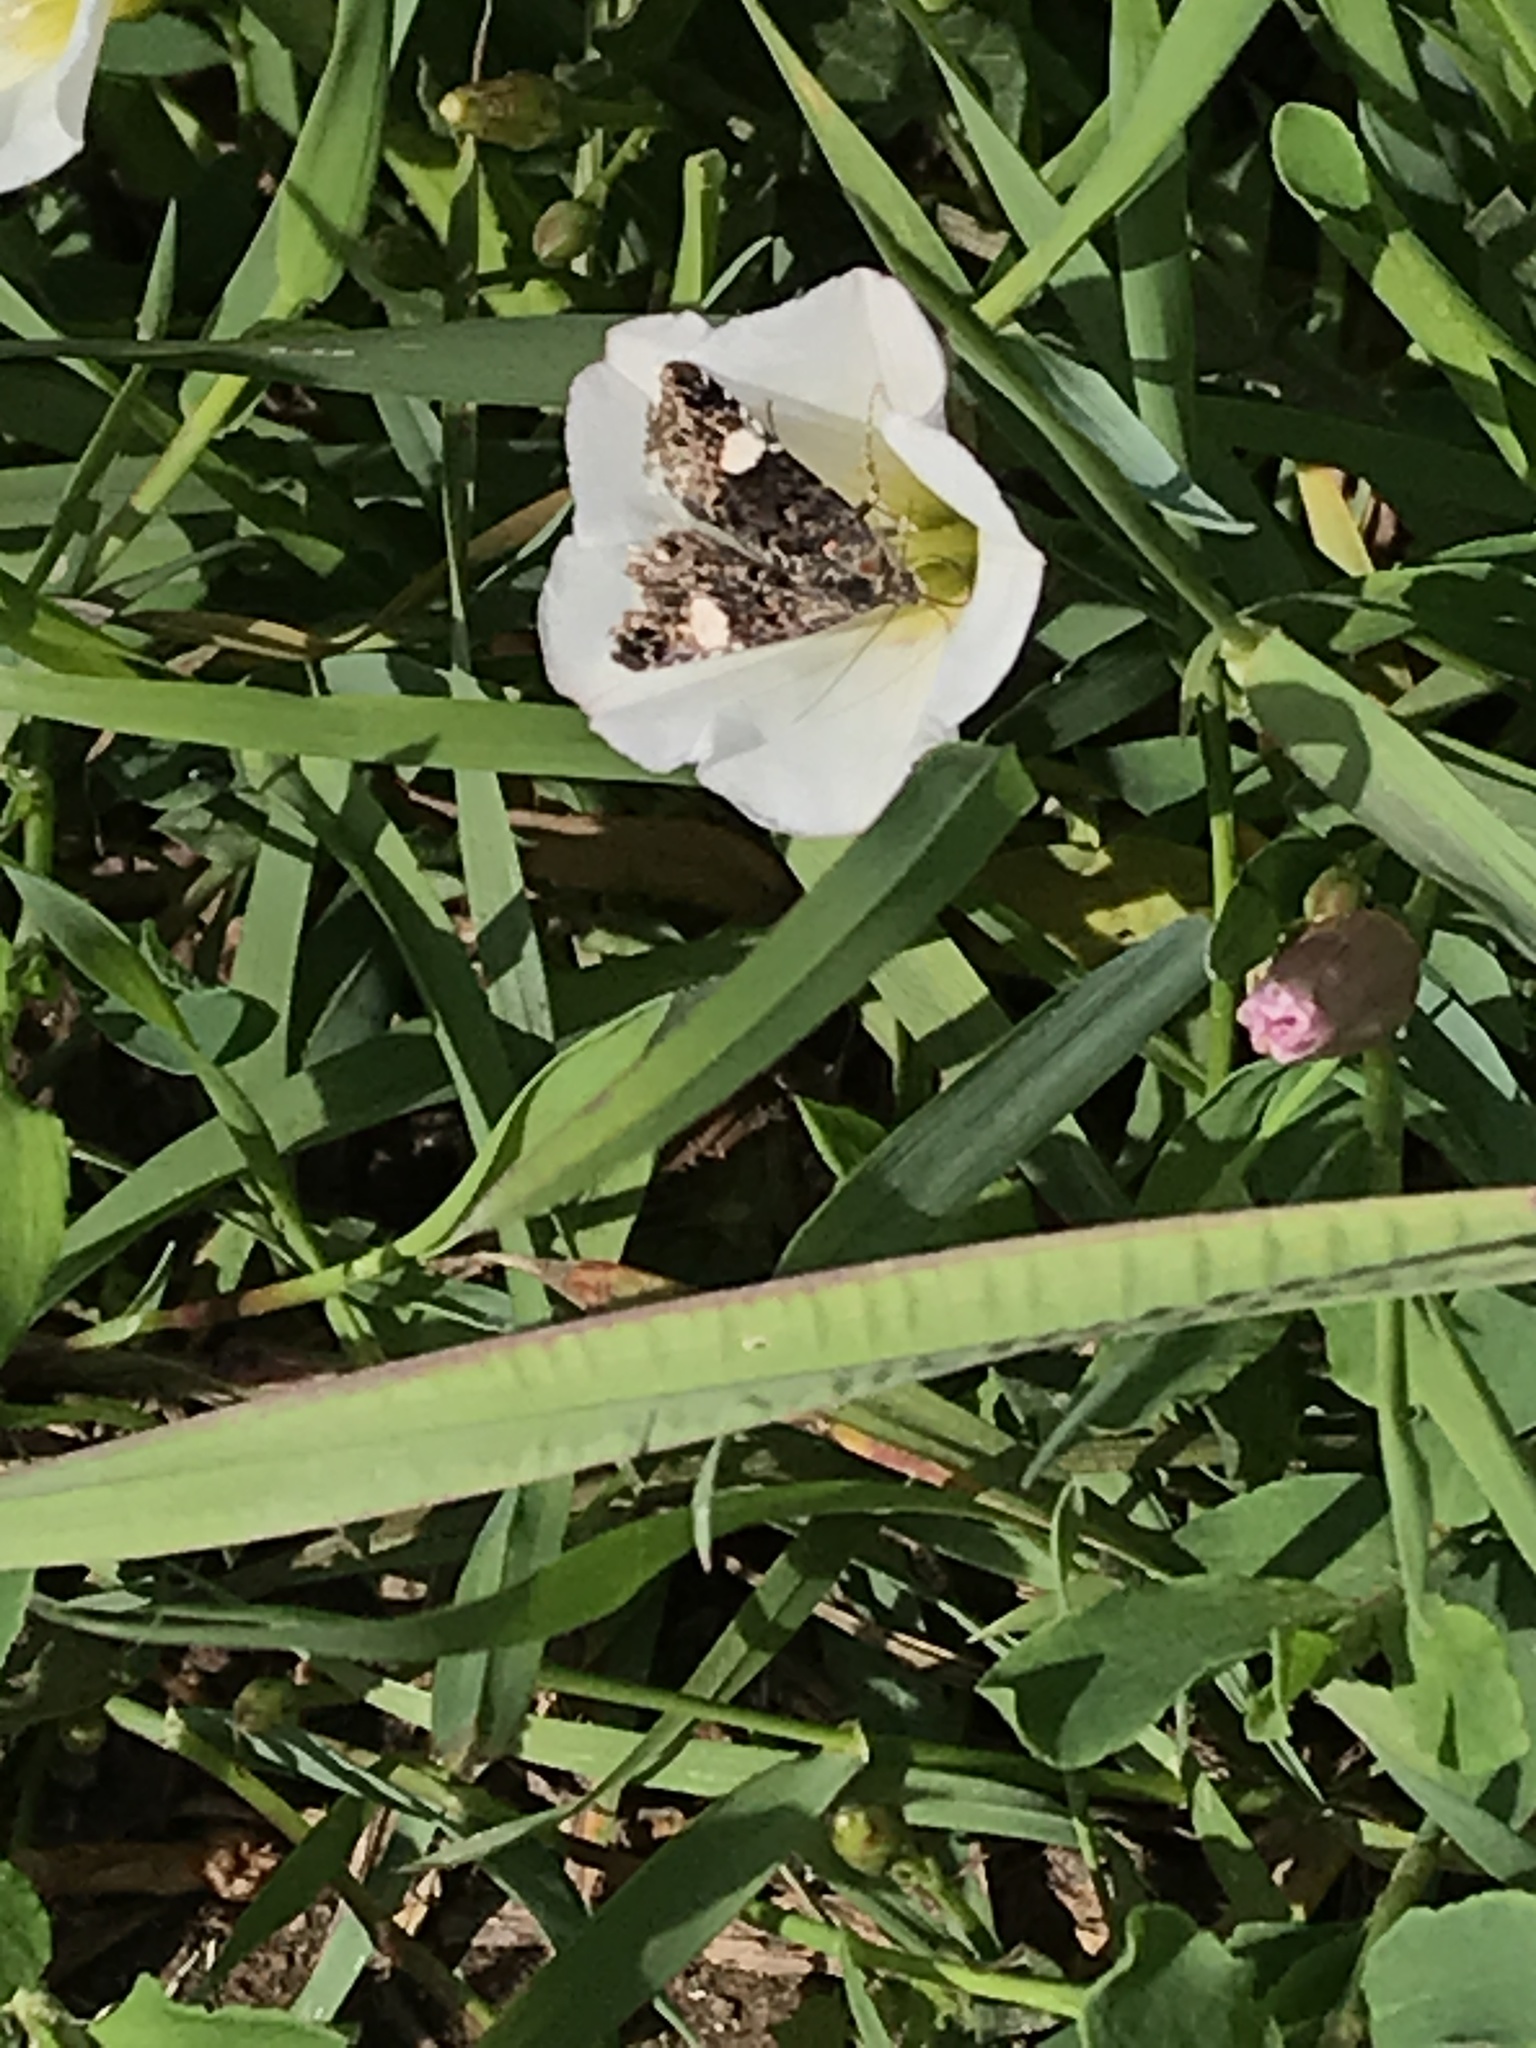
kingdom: Animalia
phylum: Arthropoda
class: Insecta
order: Lepidoptera
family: Erebidae
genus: Tyta
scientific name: Tyta luctuosa
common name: Four-spotted
